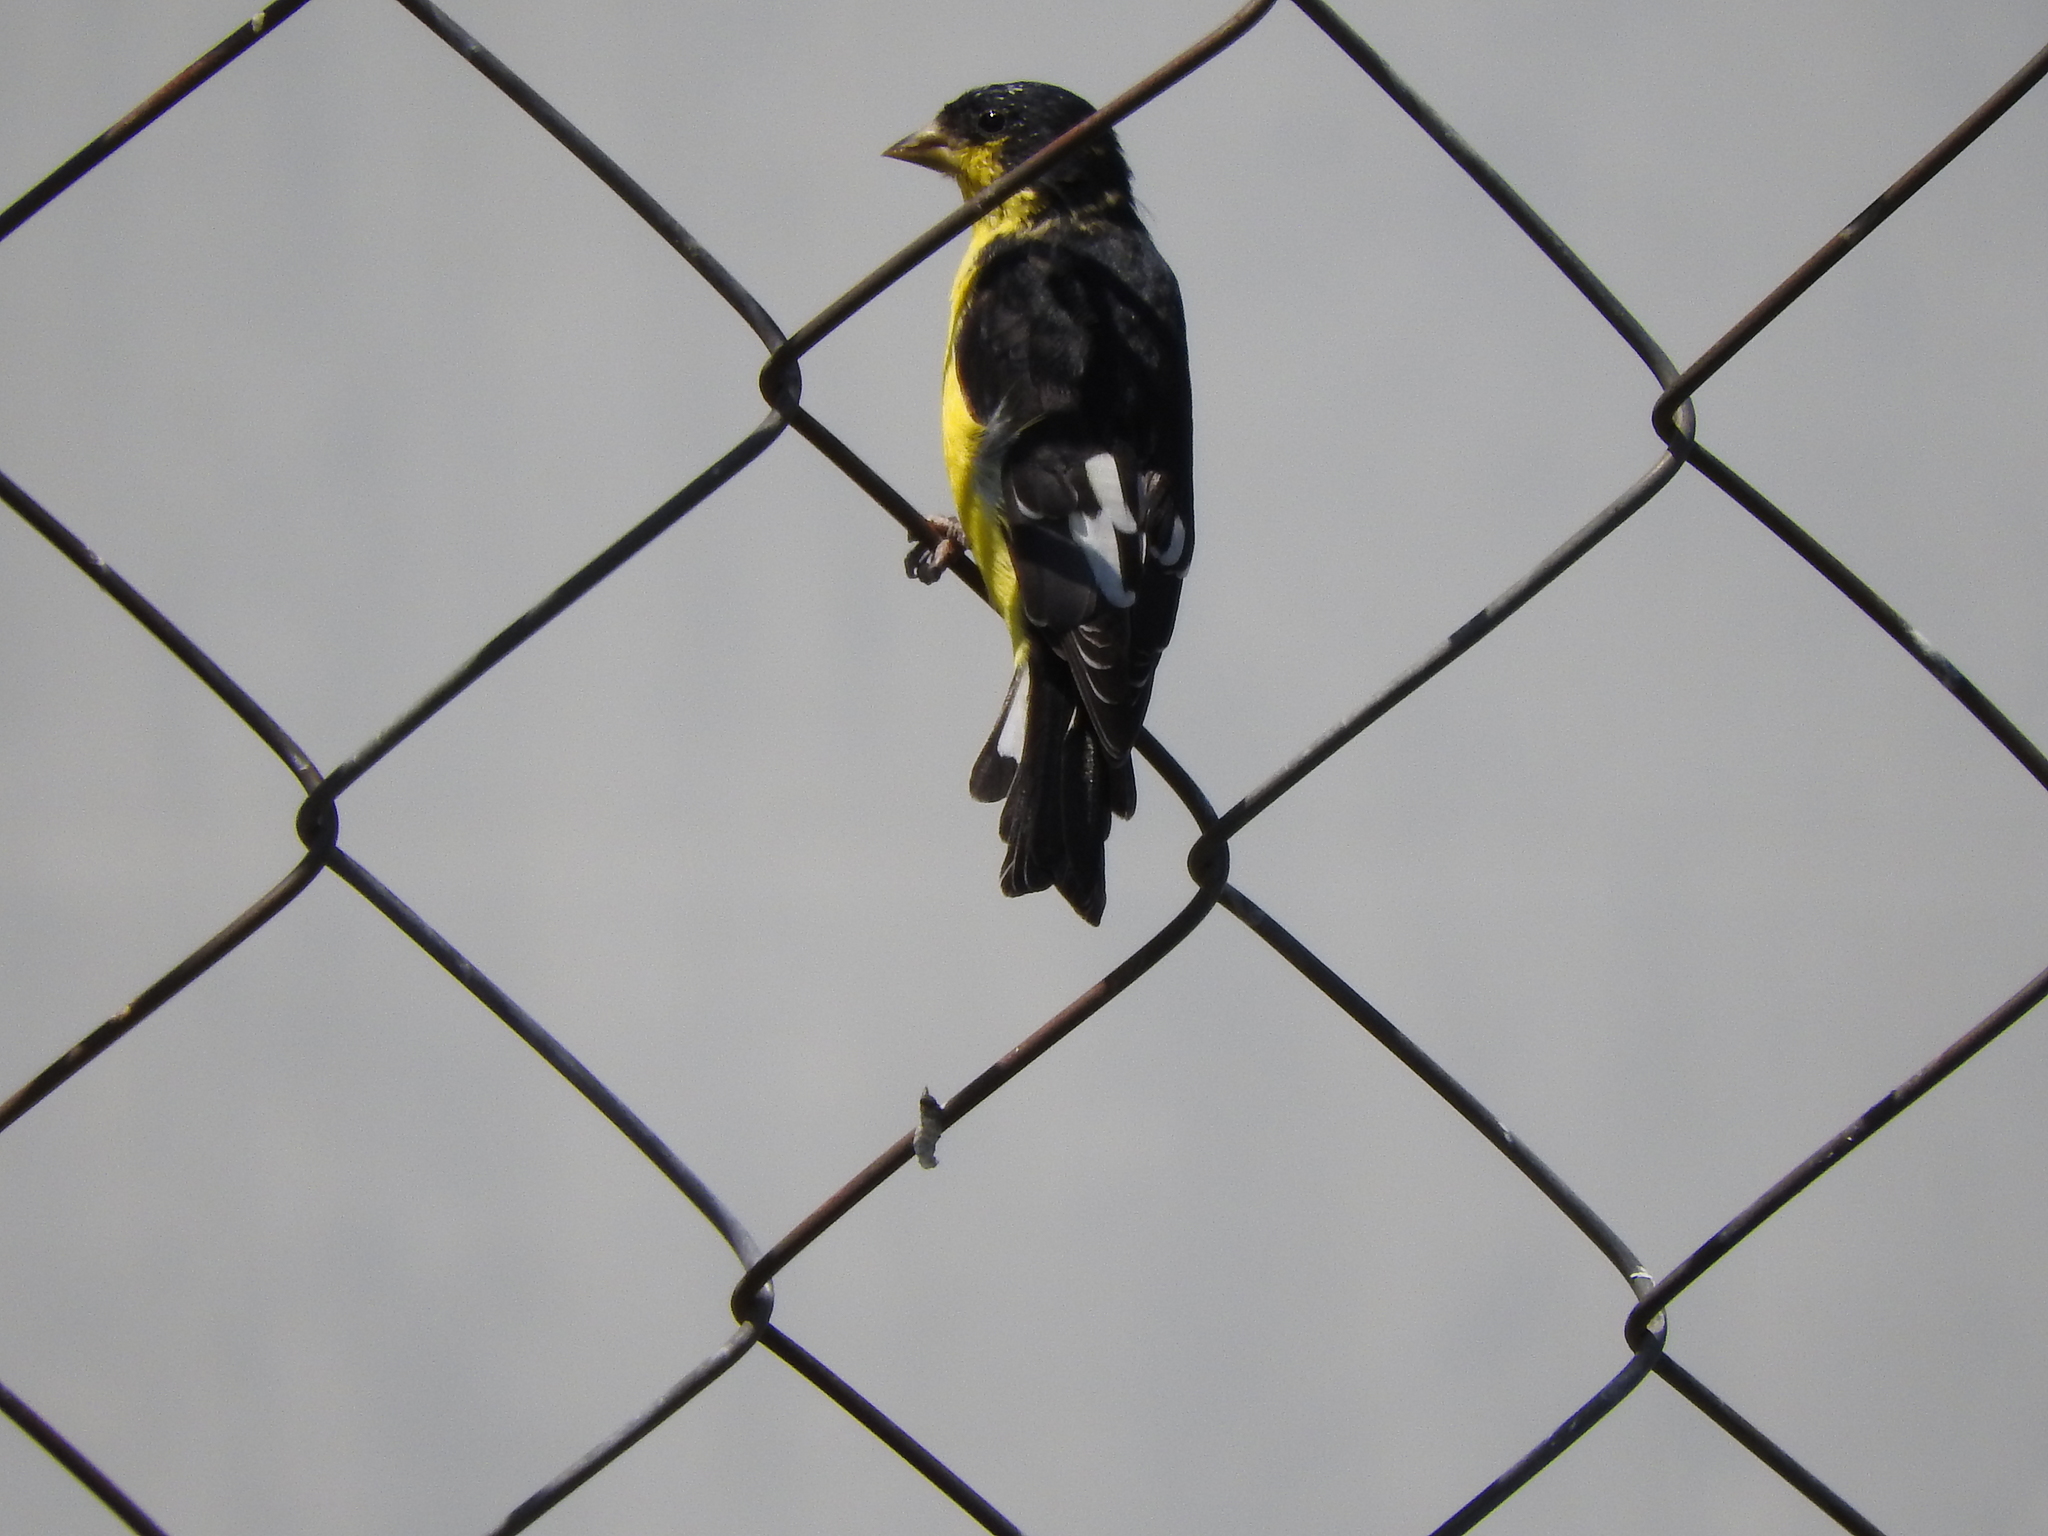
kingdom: Animalia
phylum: Chordata
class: Aves
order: Passeriformes
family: Fringillidae
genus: Spinus
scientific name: Spinus psaltria
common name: Lesser goldfinch
